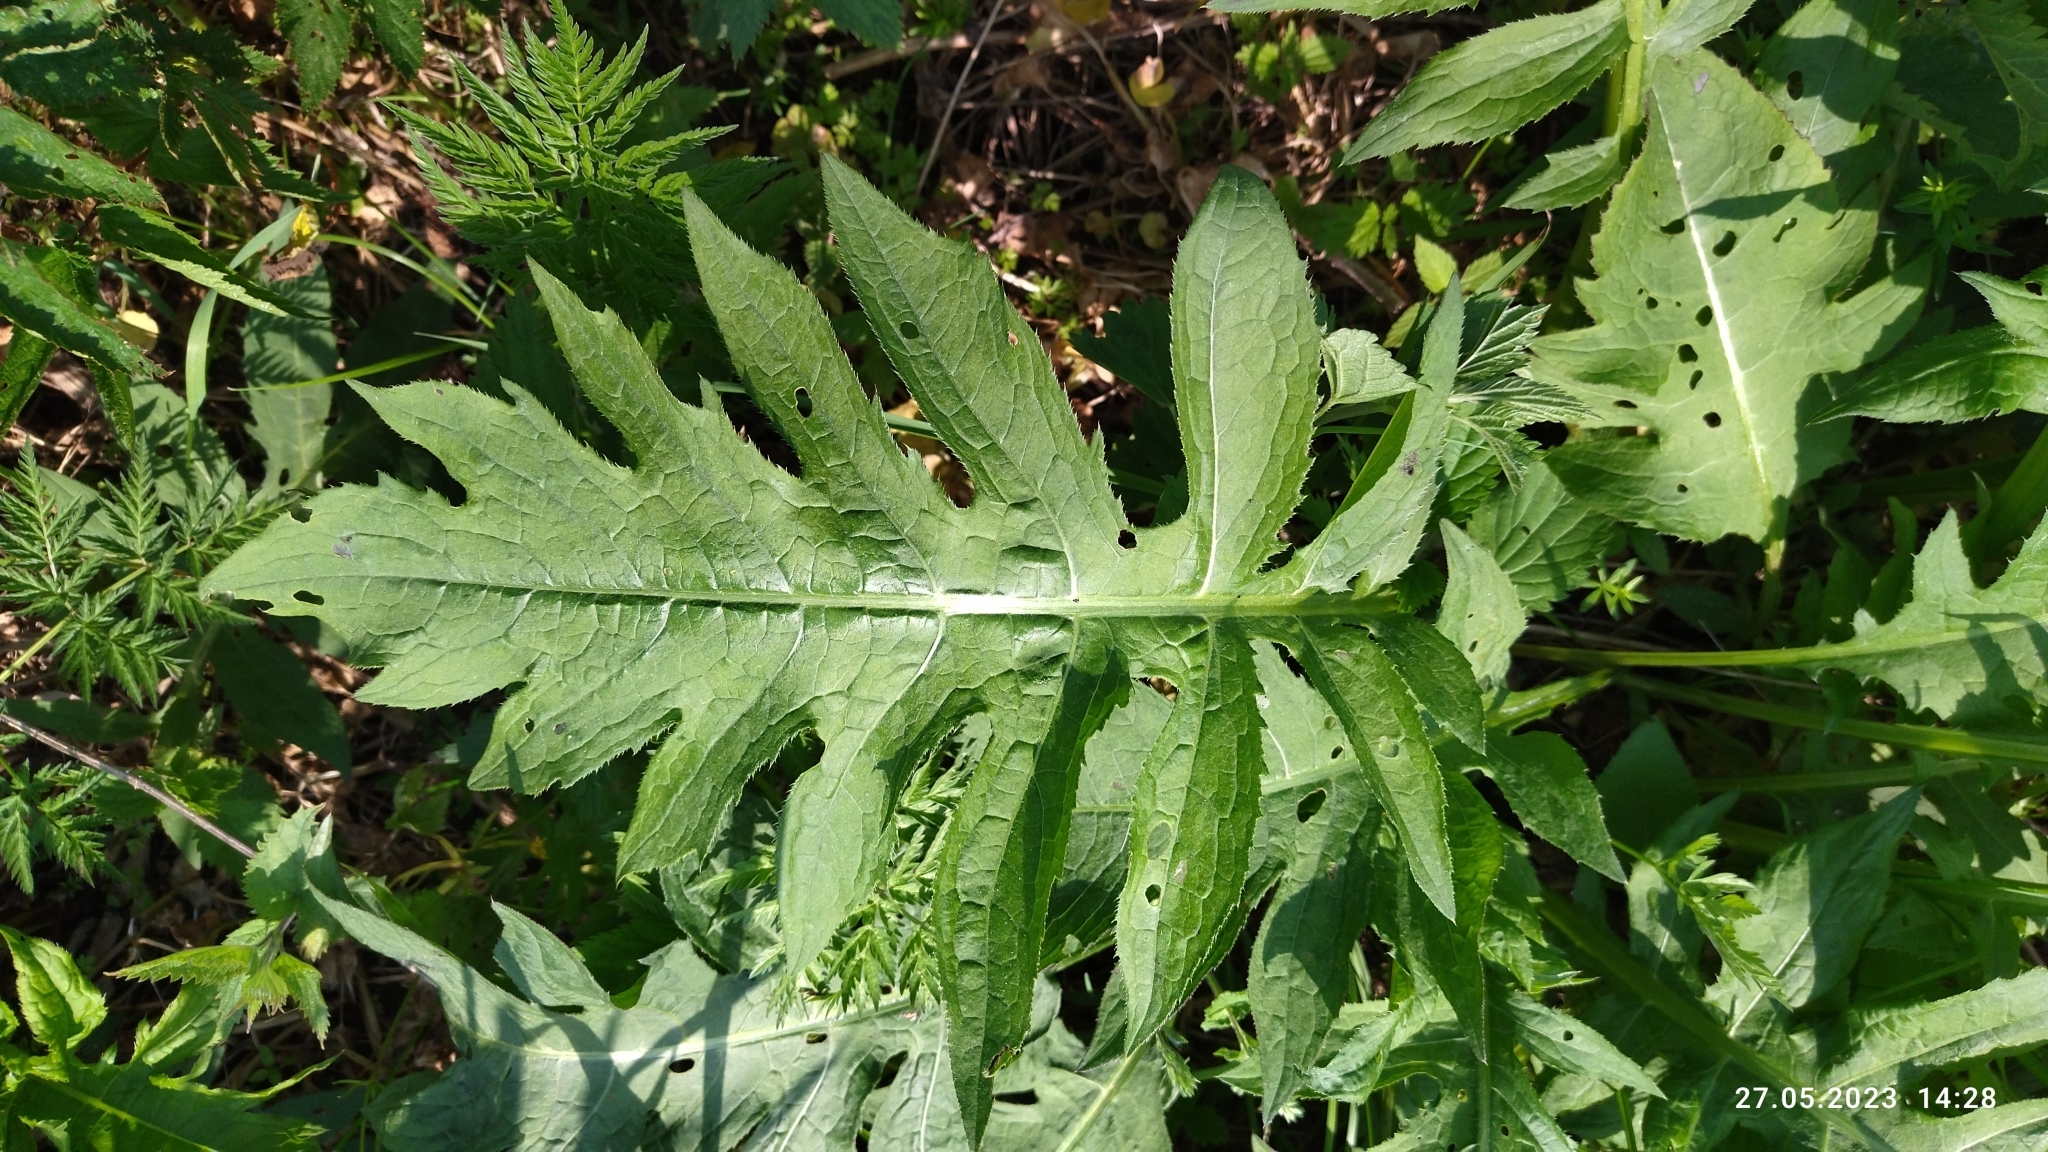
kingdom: Plantae
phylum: Tracheophyta
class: Magnoliopsida
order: Asterales
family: Asteraceae
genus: Cirsium
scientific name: Cirsium oleraceum
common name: Cabbage thistle
